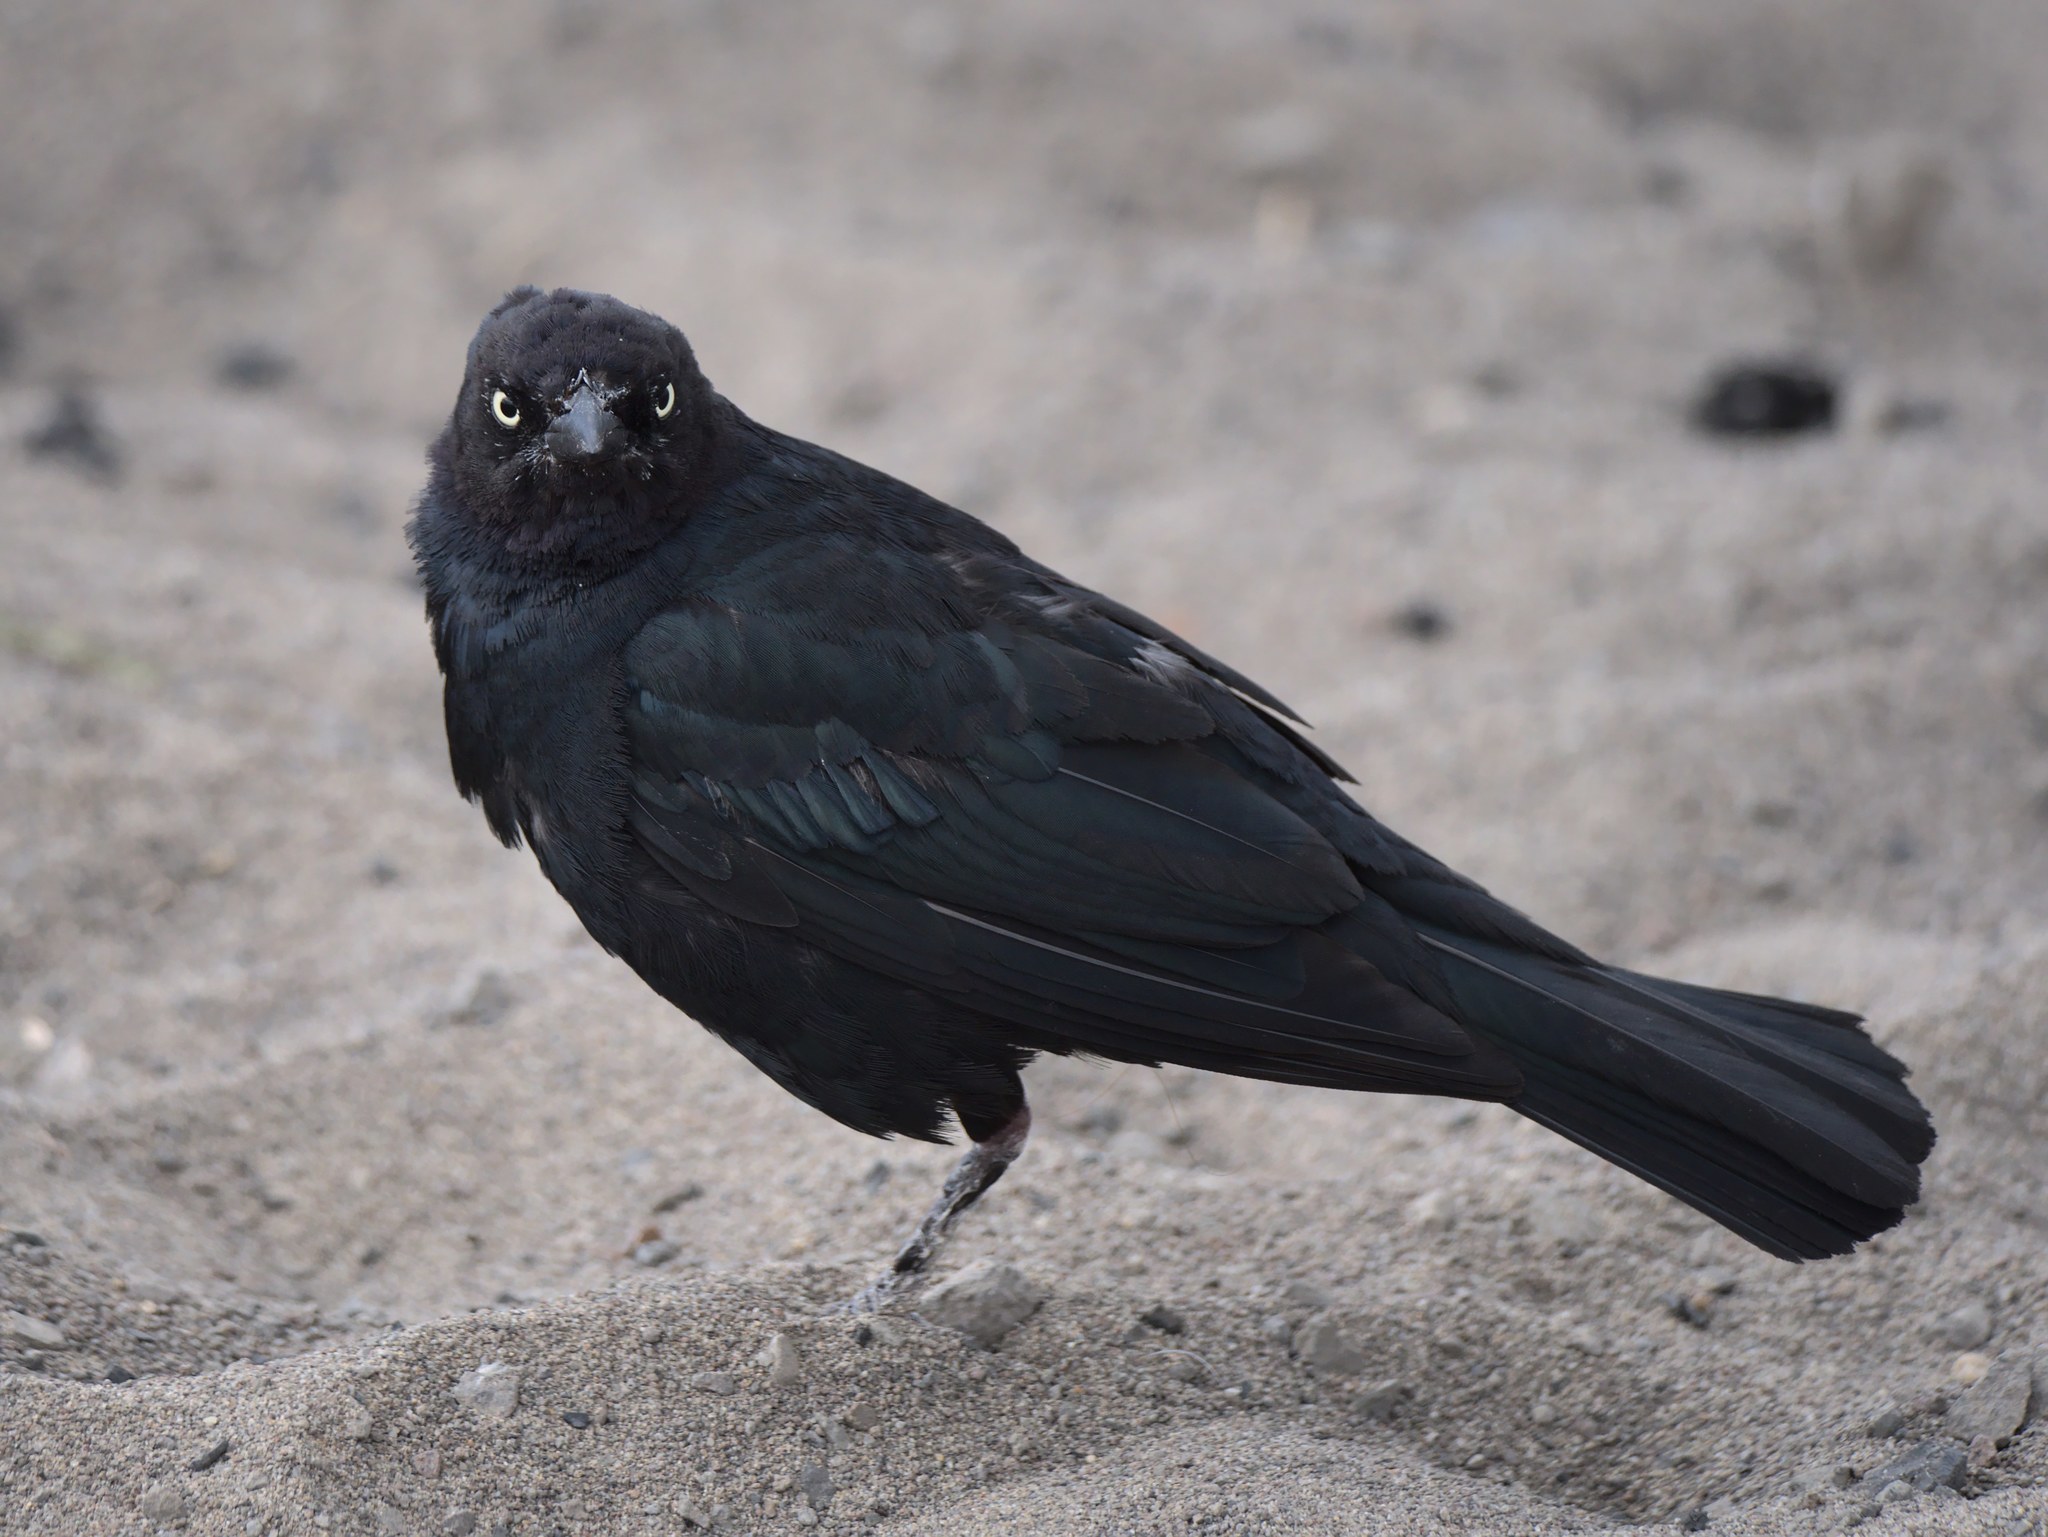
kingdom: Animalia
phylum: Chordata
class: Aves
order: Passeriformes
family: Icteridae
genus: Euphagus
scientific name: Euphagus cyanocephalus
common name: Brewer's blackbird
